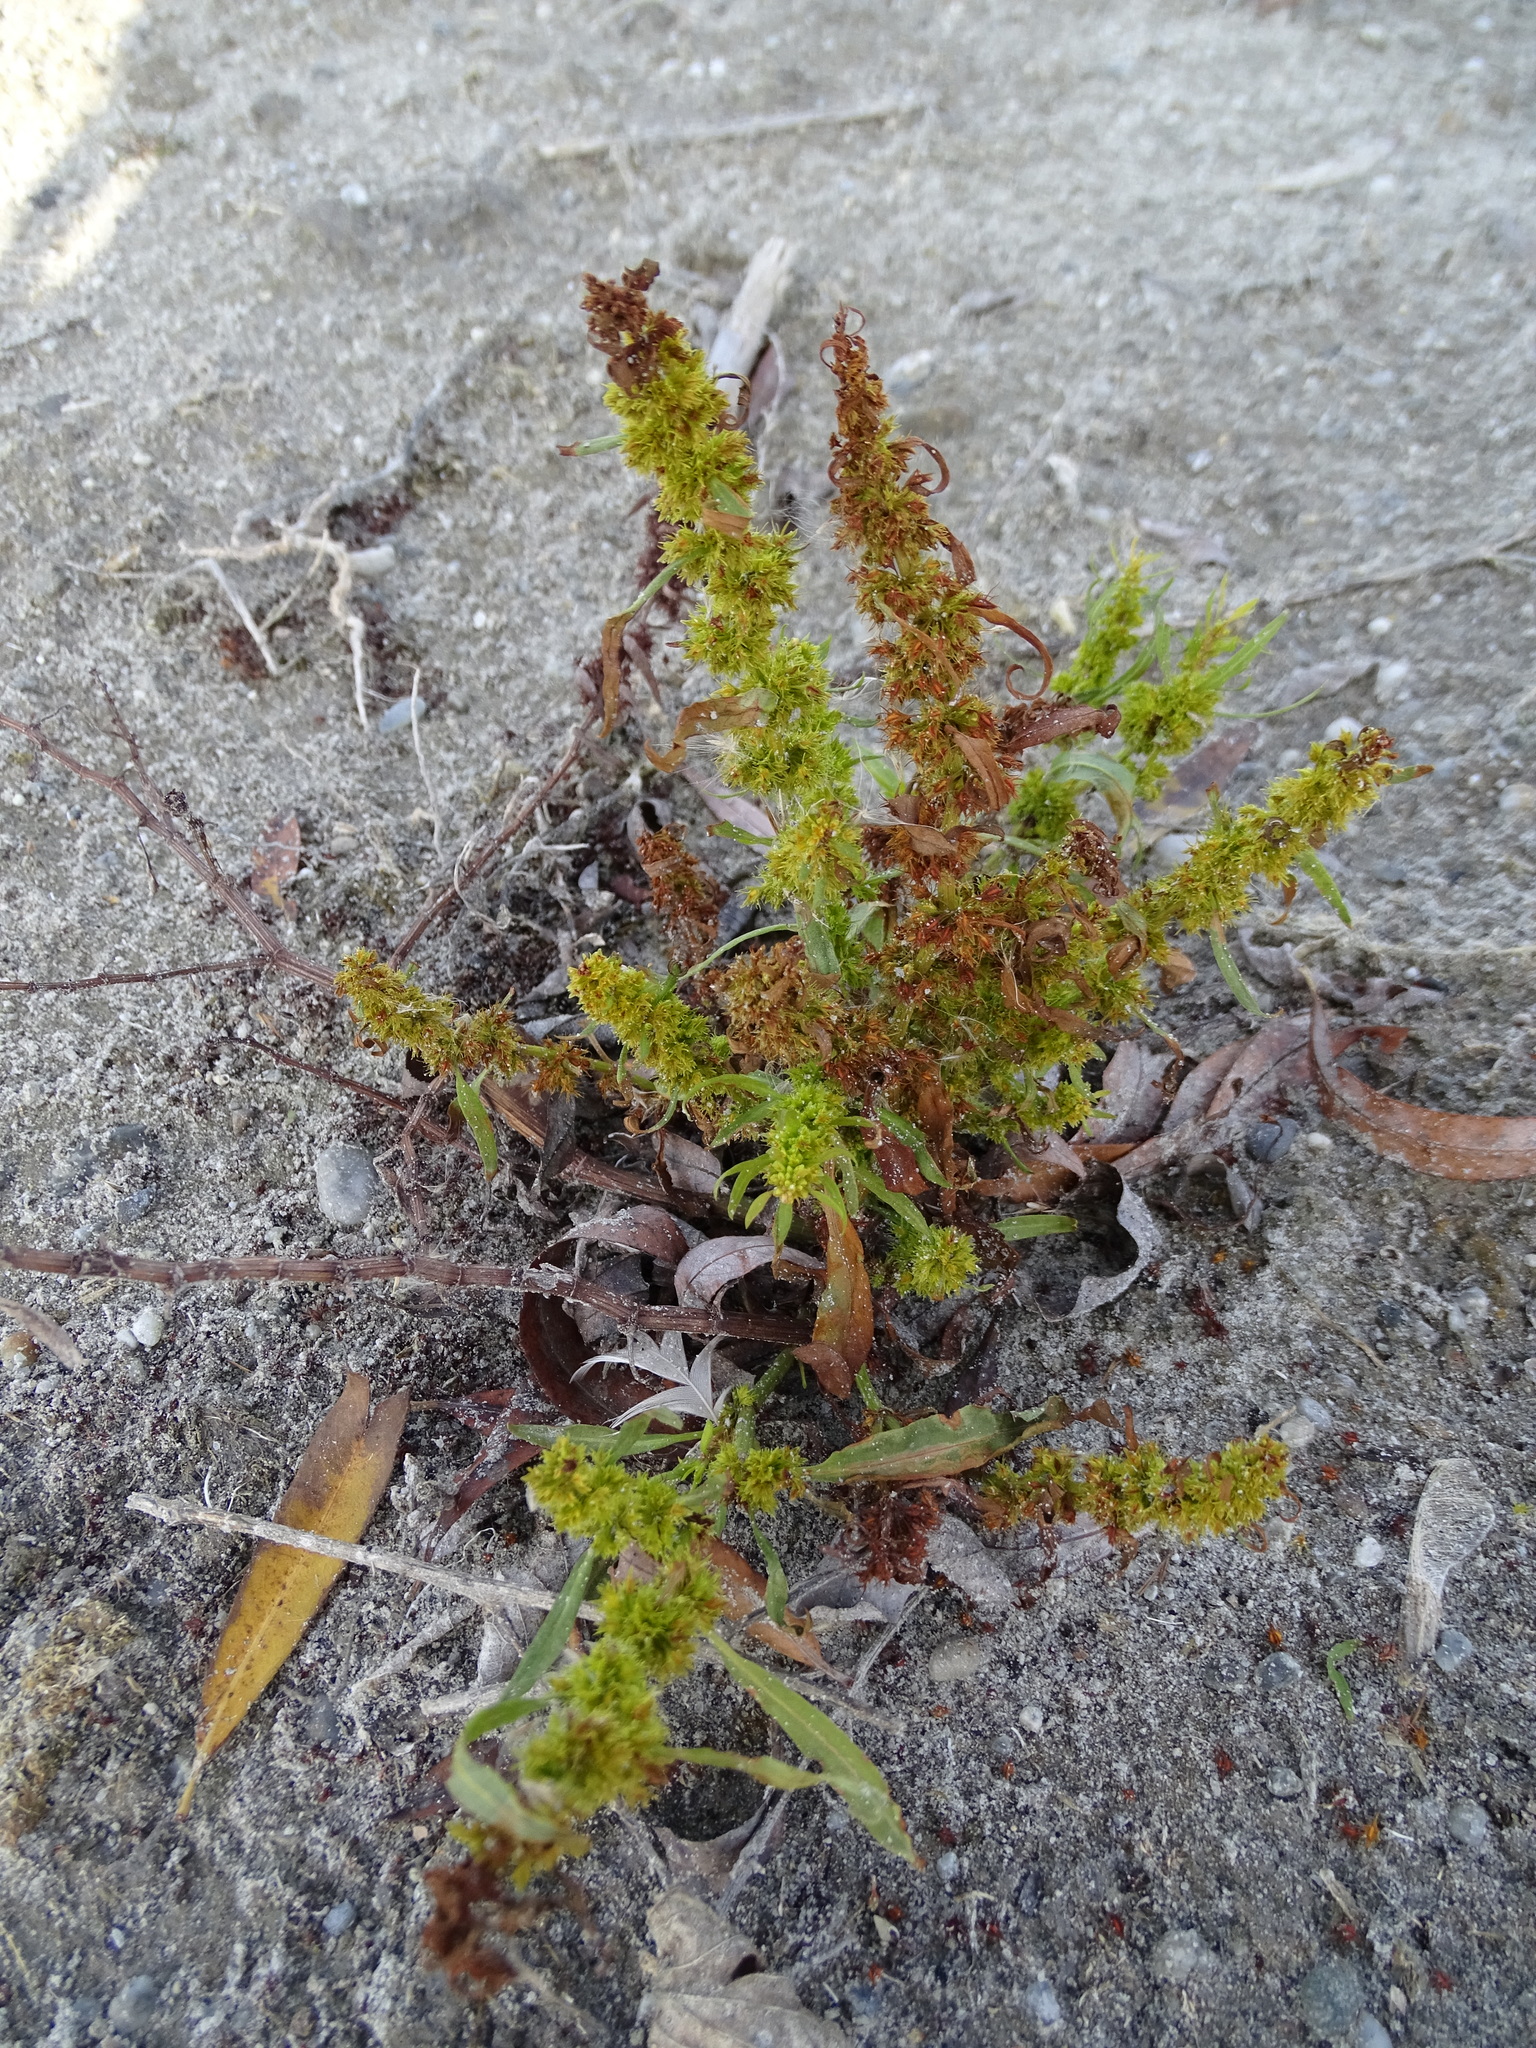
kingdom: Plantae
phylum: Tracheophyta
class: Magnoliopsida
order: Caryophyllales
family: Polygonaceae
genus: Rumex
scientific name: Rumex maritimus
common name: Golden dock
